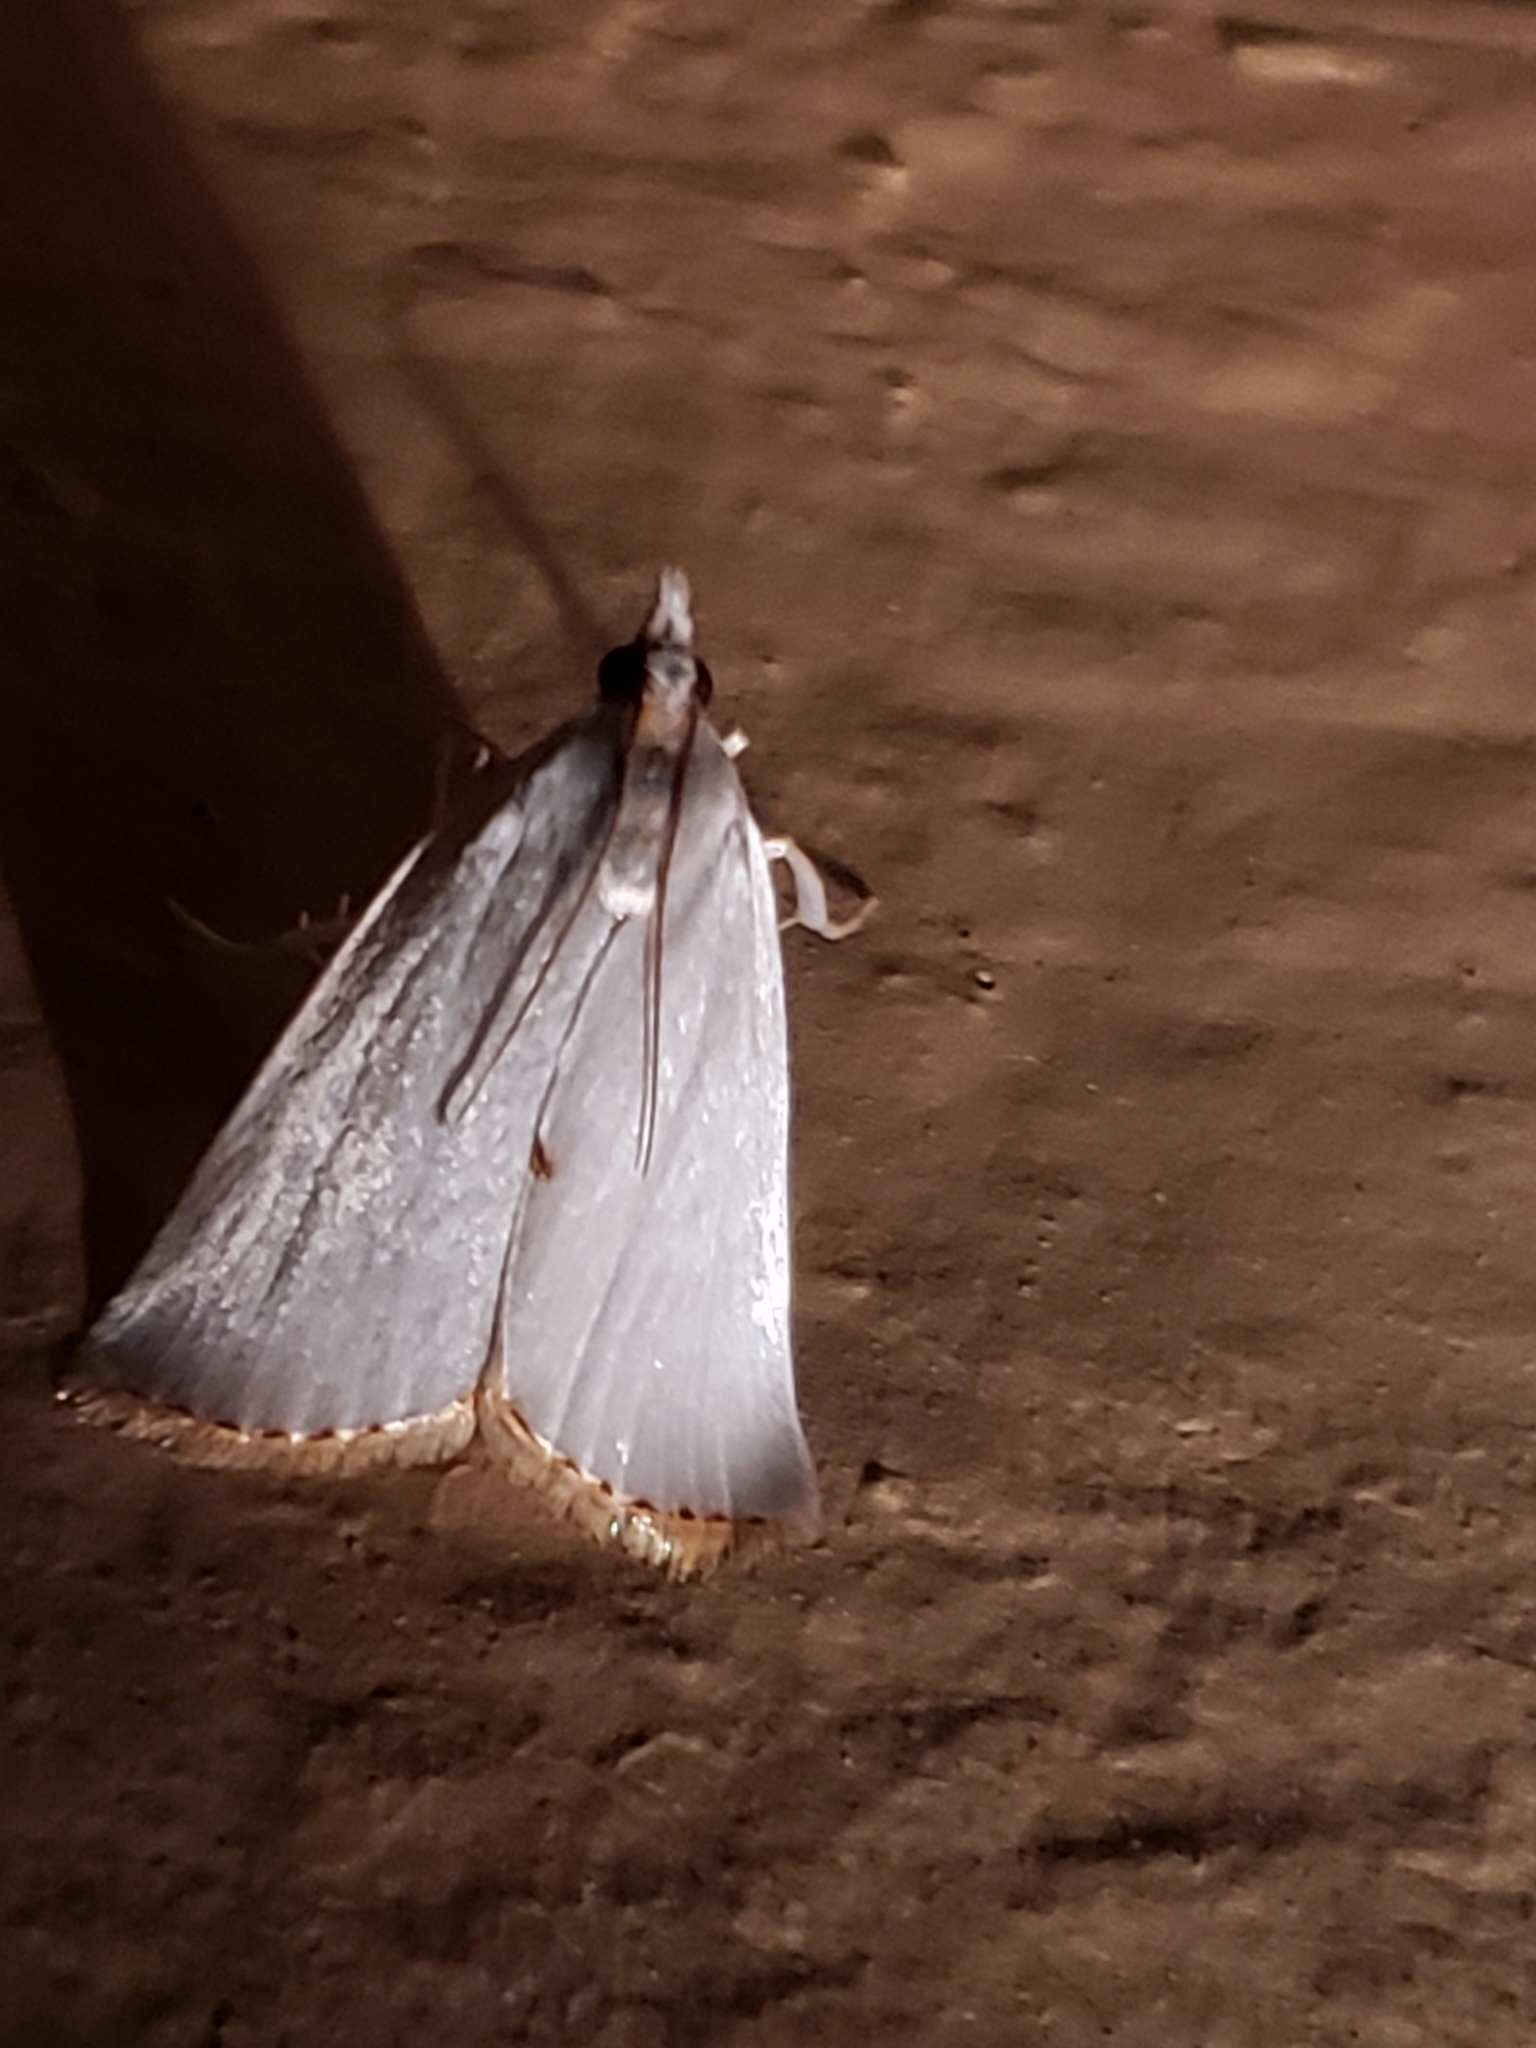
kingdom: Animalia
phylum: Arthropoda
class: Insecta
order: Lepidoptera
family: Crambidae
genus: Argyria
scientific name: Argyria nivalis
